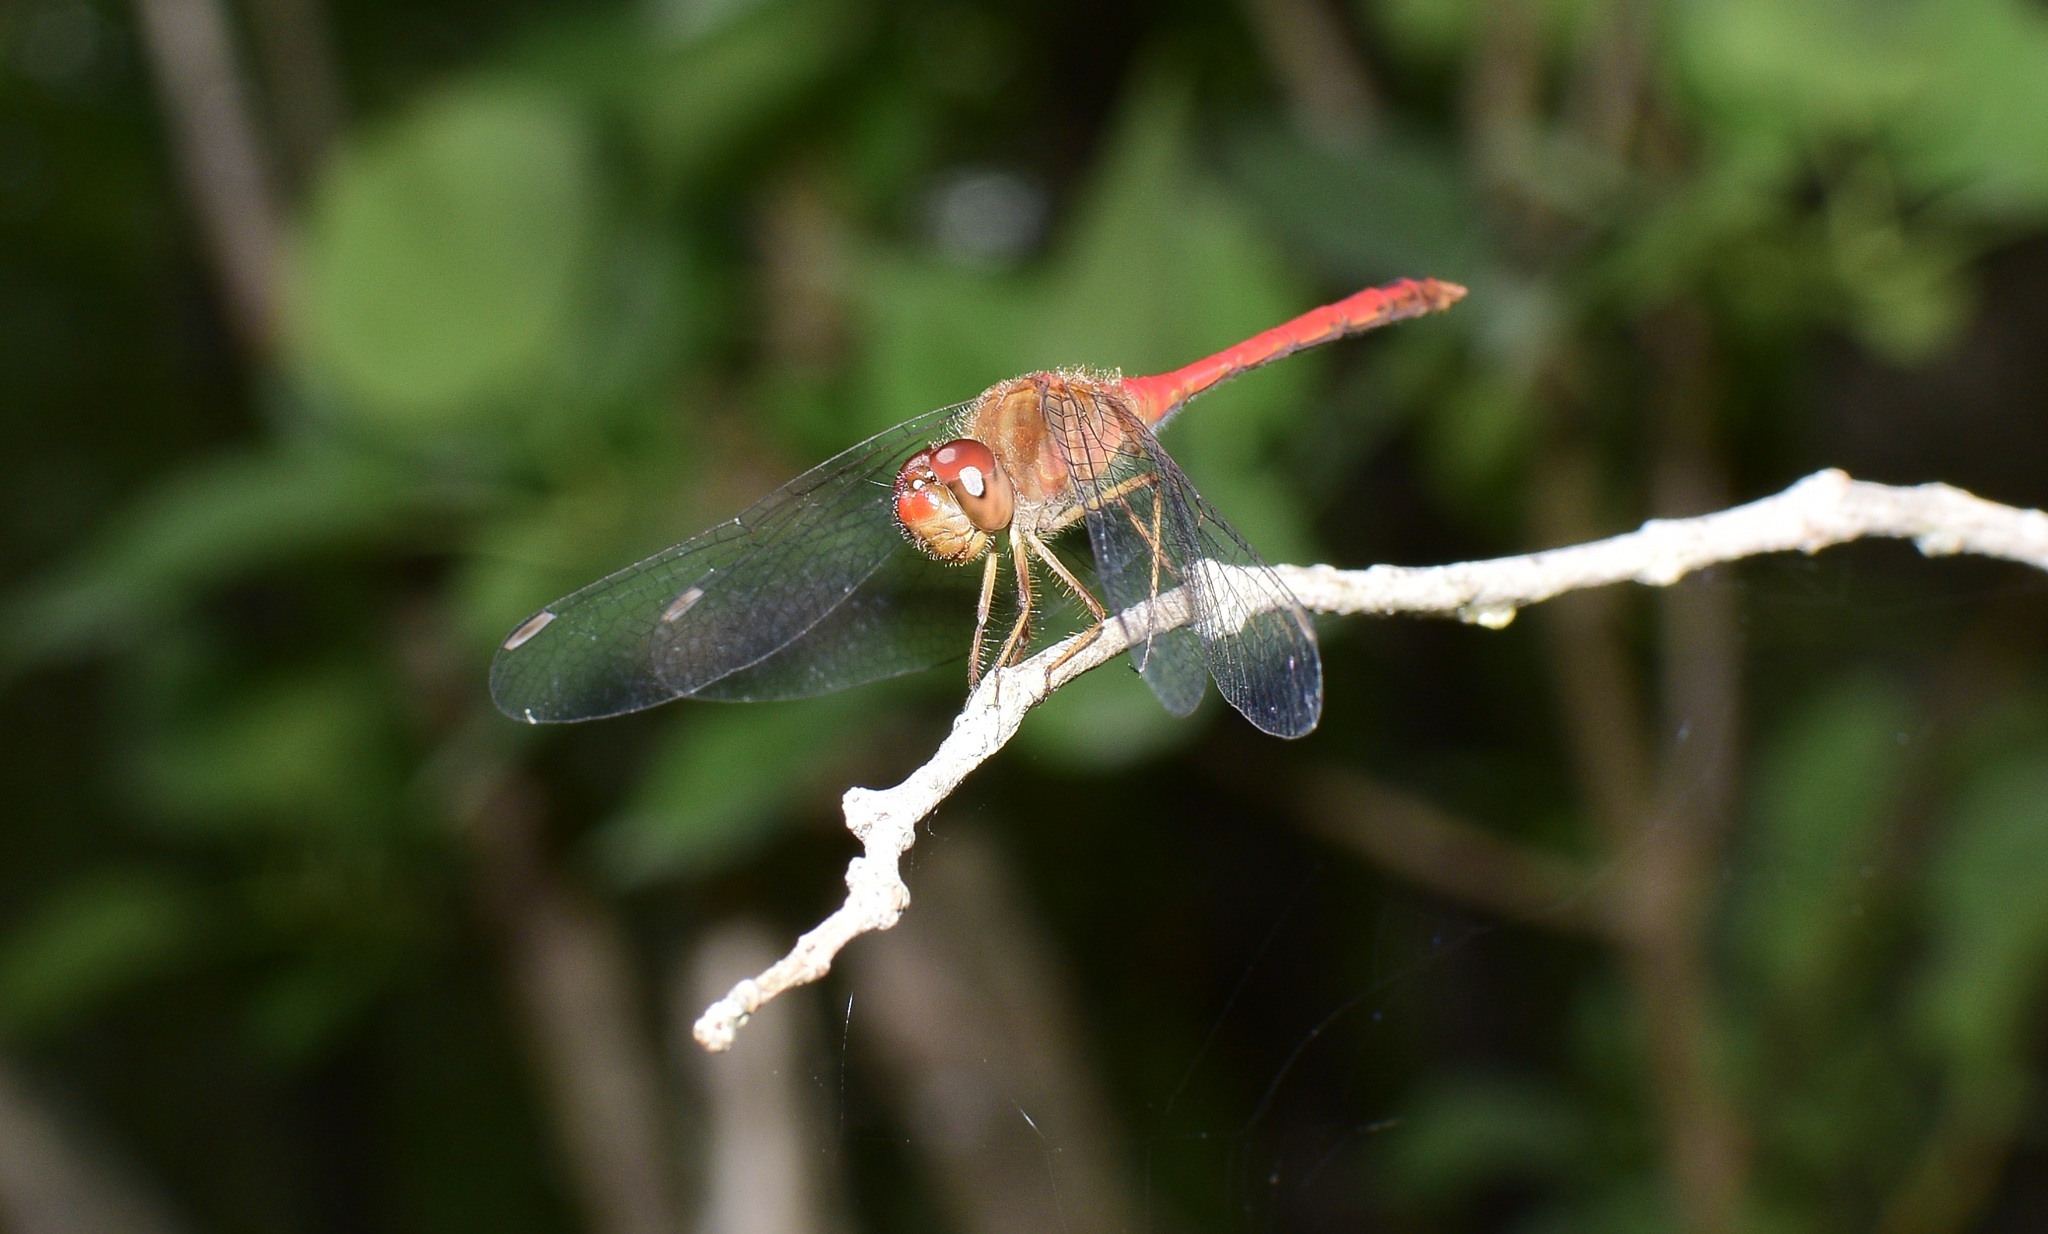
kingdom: Animalia
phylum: Arthropoda
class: Insecta
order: Odonata
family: Libellulidae
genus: Sympetrum
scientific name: Sympetrum vicinum
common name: Autumn meadowhawk
